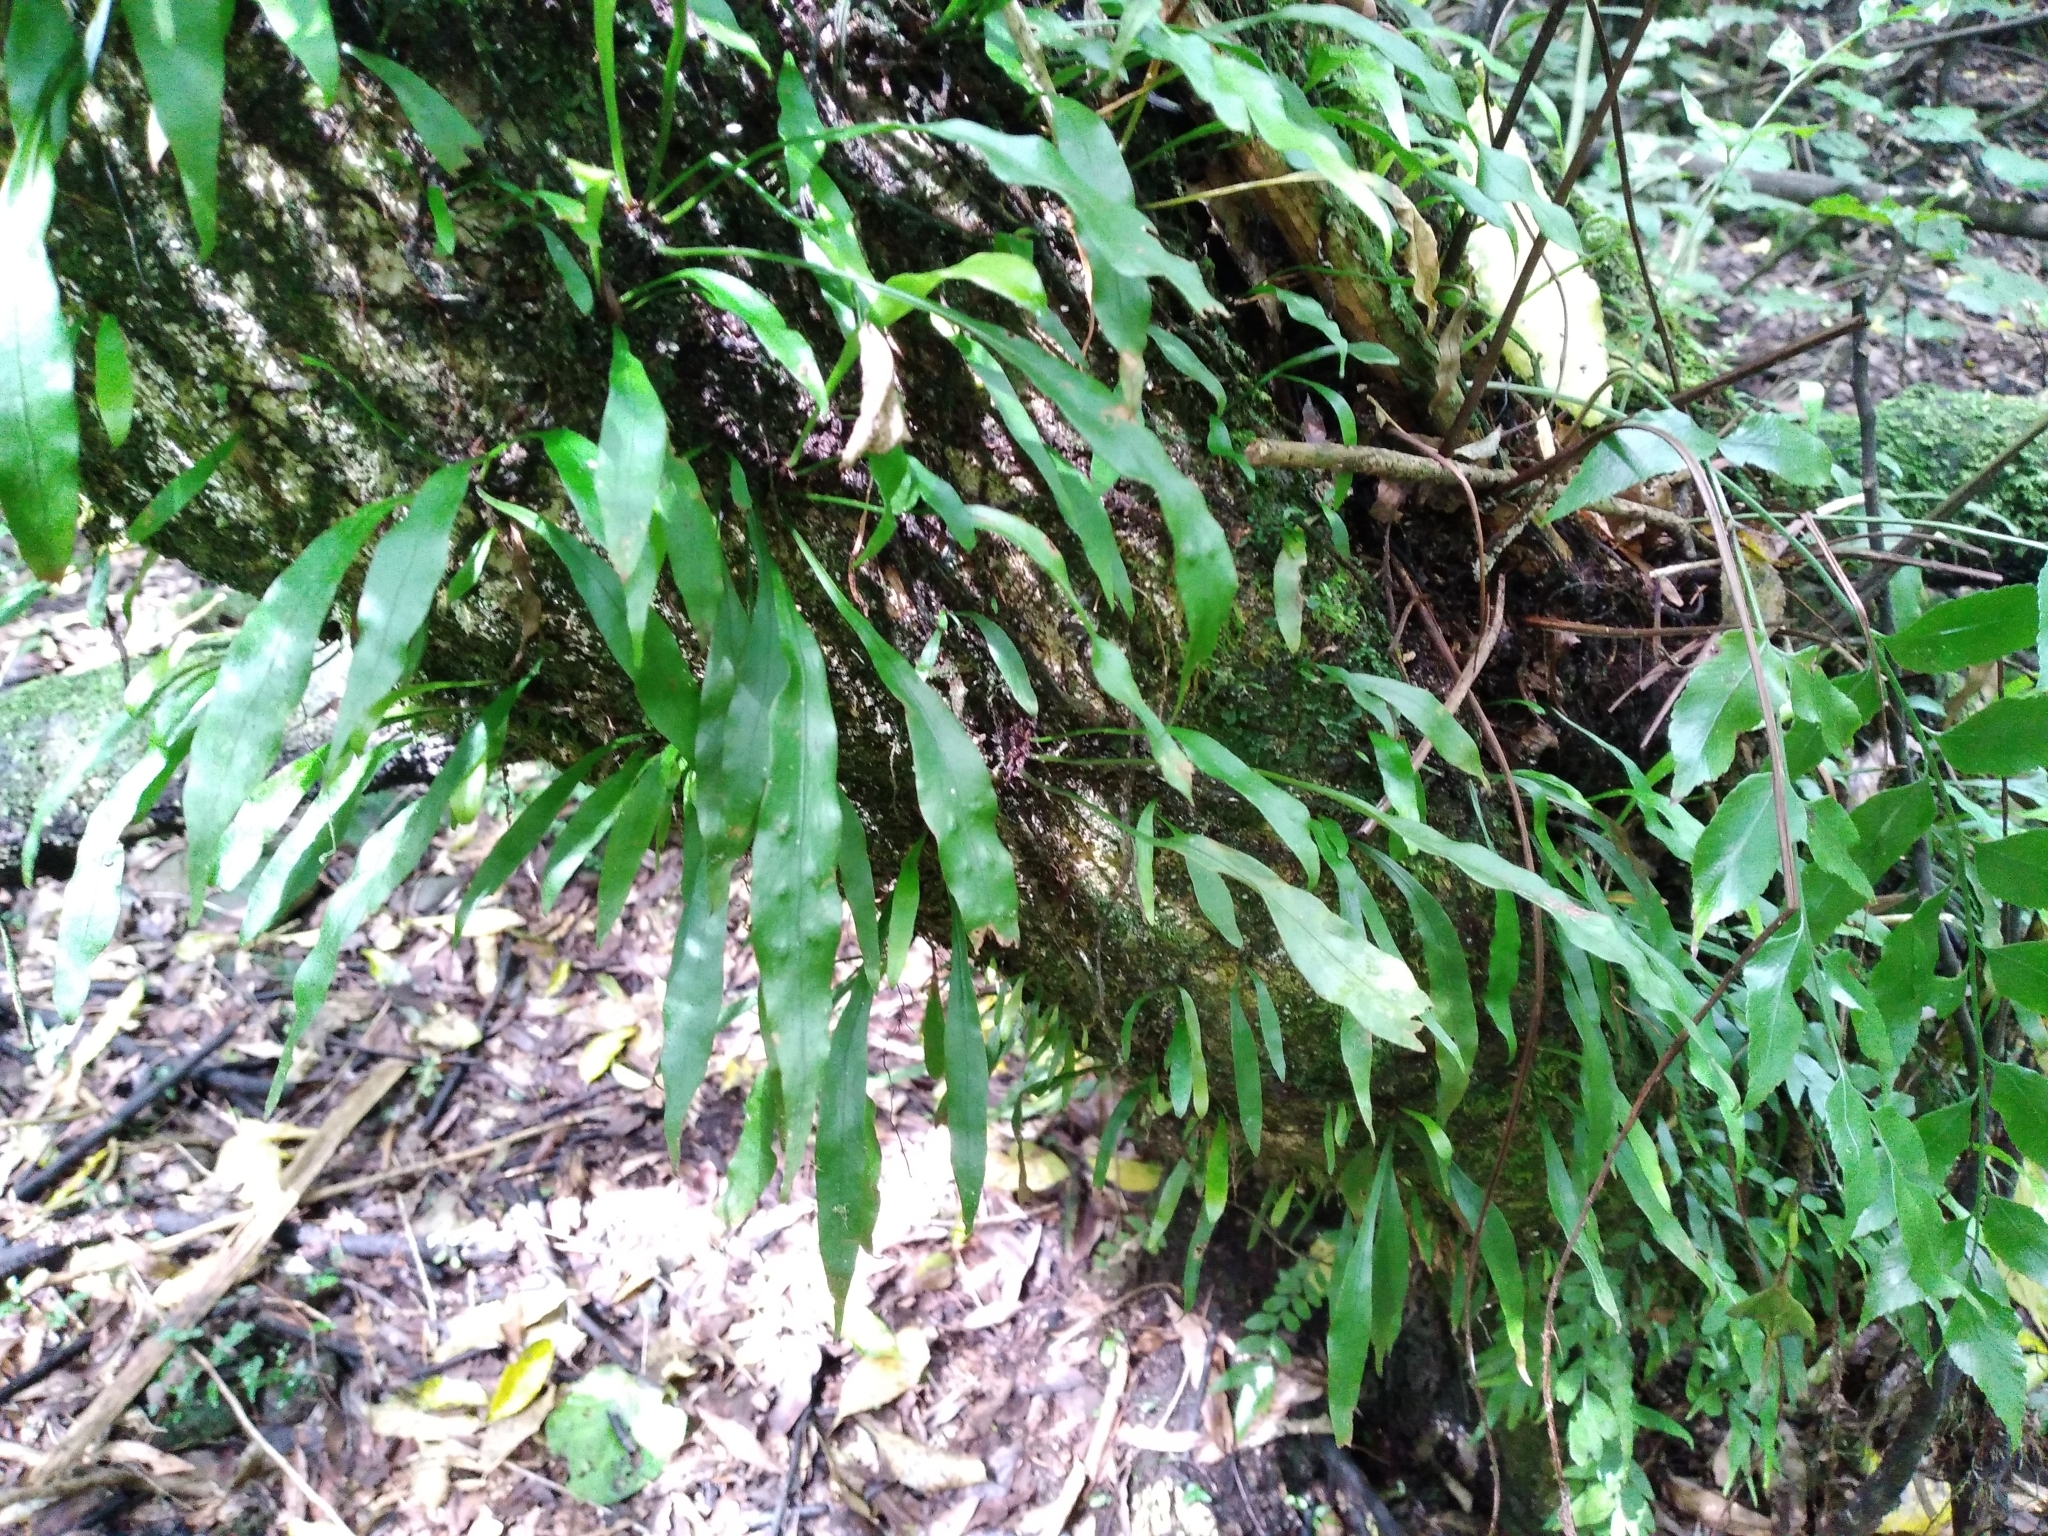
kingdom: Plantae
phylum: Tracheophyta
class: Polypodiopsida
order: Polypodiales
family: Polypodiaceae
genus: Loxogramme
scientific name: Loxogramme dictyopteris
